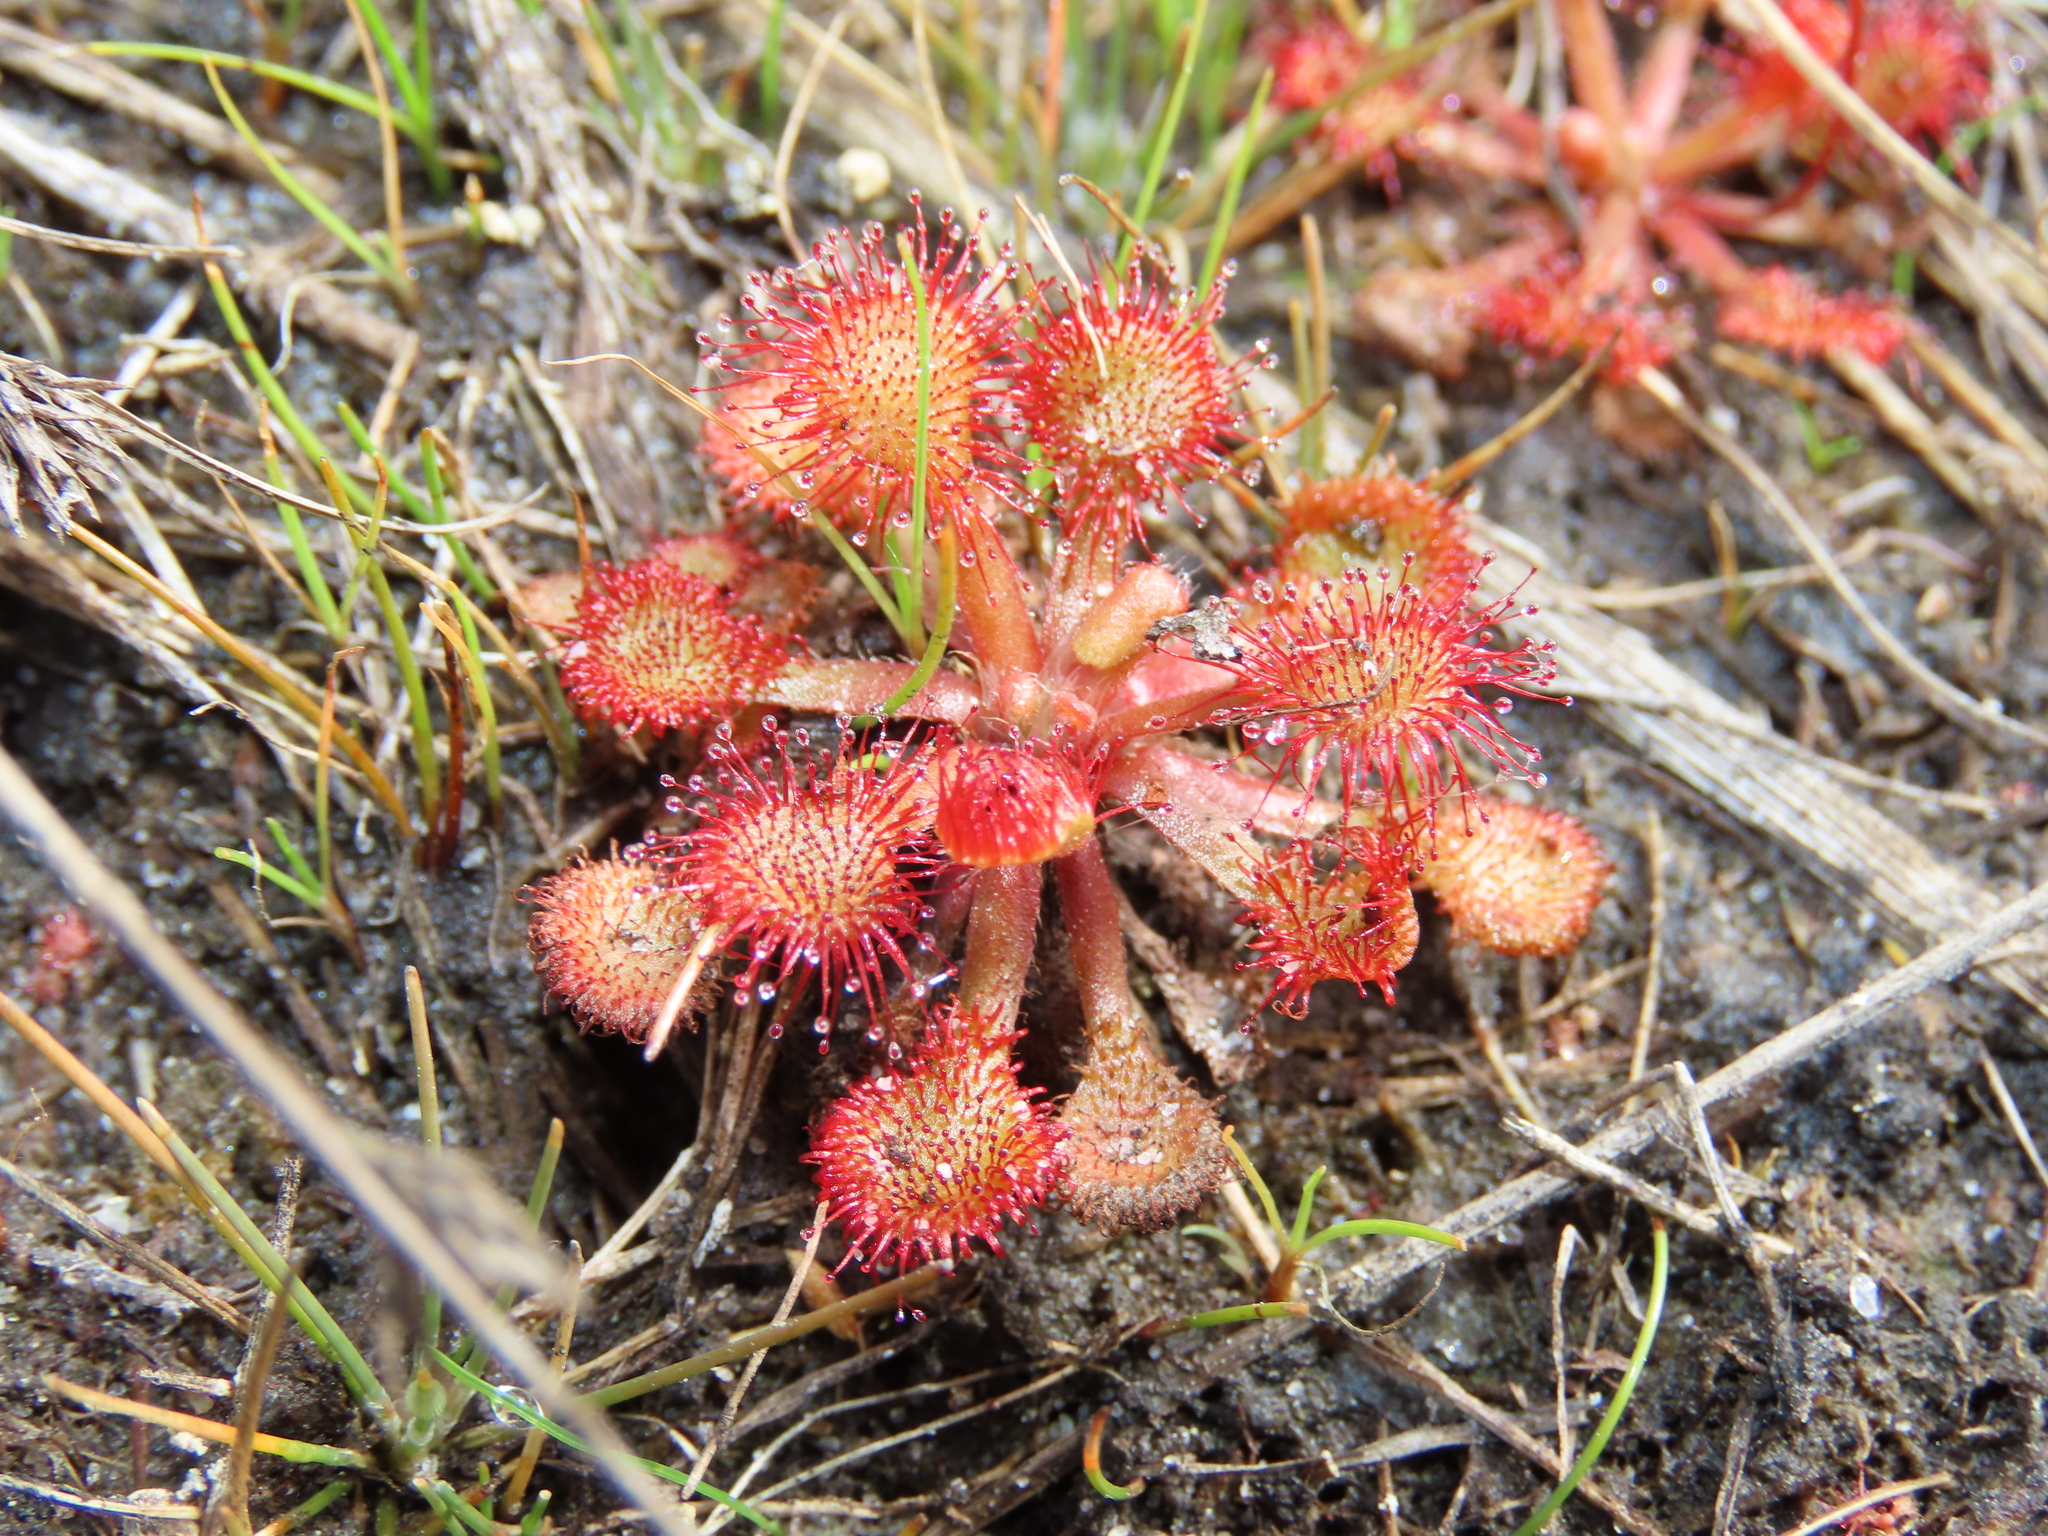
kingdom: Plantae
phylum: Tracheophyta
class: Magnoliopsida
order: Caryophyllales
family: Droseraceae
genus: Drosera
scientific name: Drosera capillaris
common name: Pink sundew
